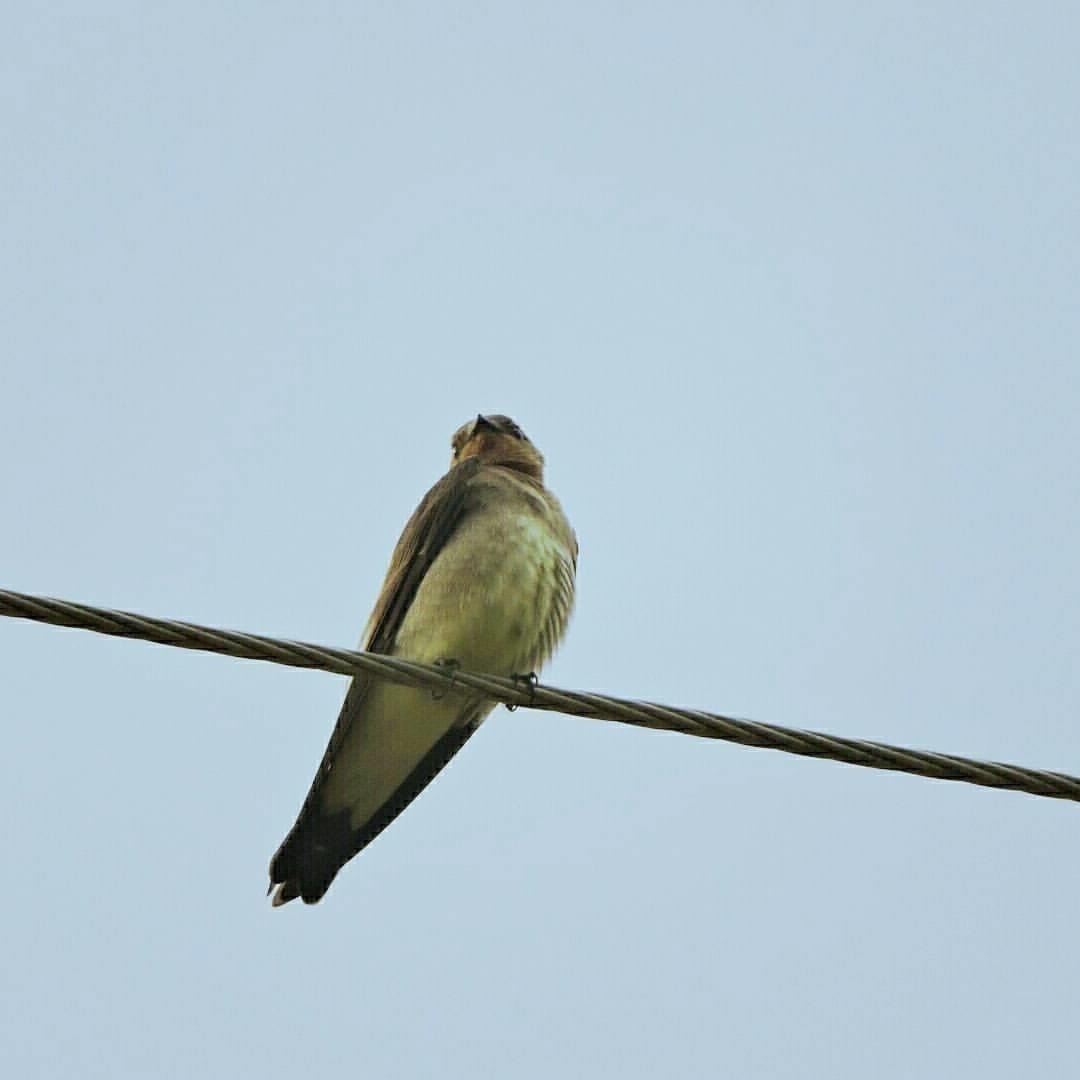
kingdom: Animalia
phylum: Chordata
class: Aves
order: Passeriformes
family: Hirundinidae
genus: Stelgidopteryx
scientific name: Stelgidopteryx ruficollis
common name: Southern rough-winged swallow
